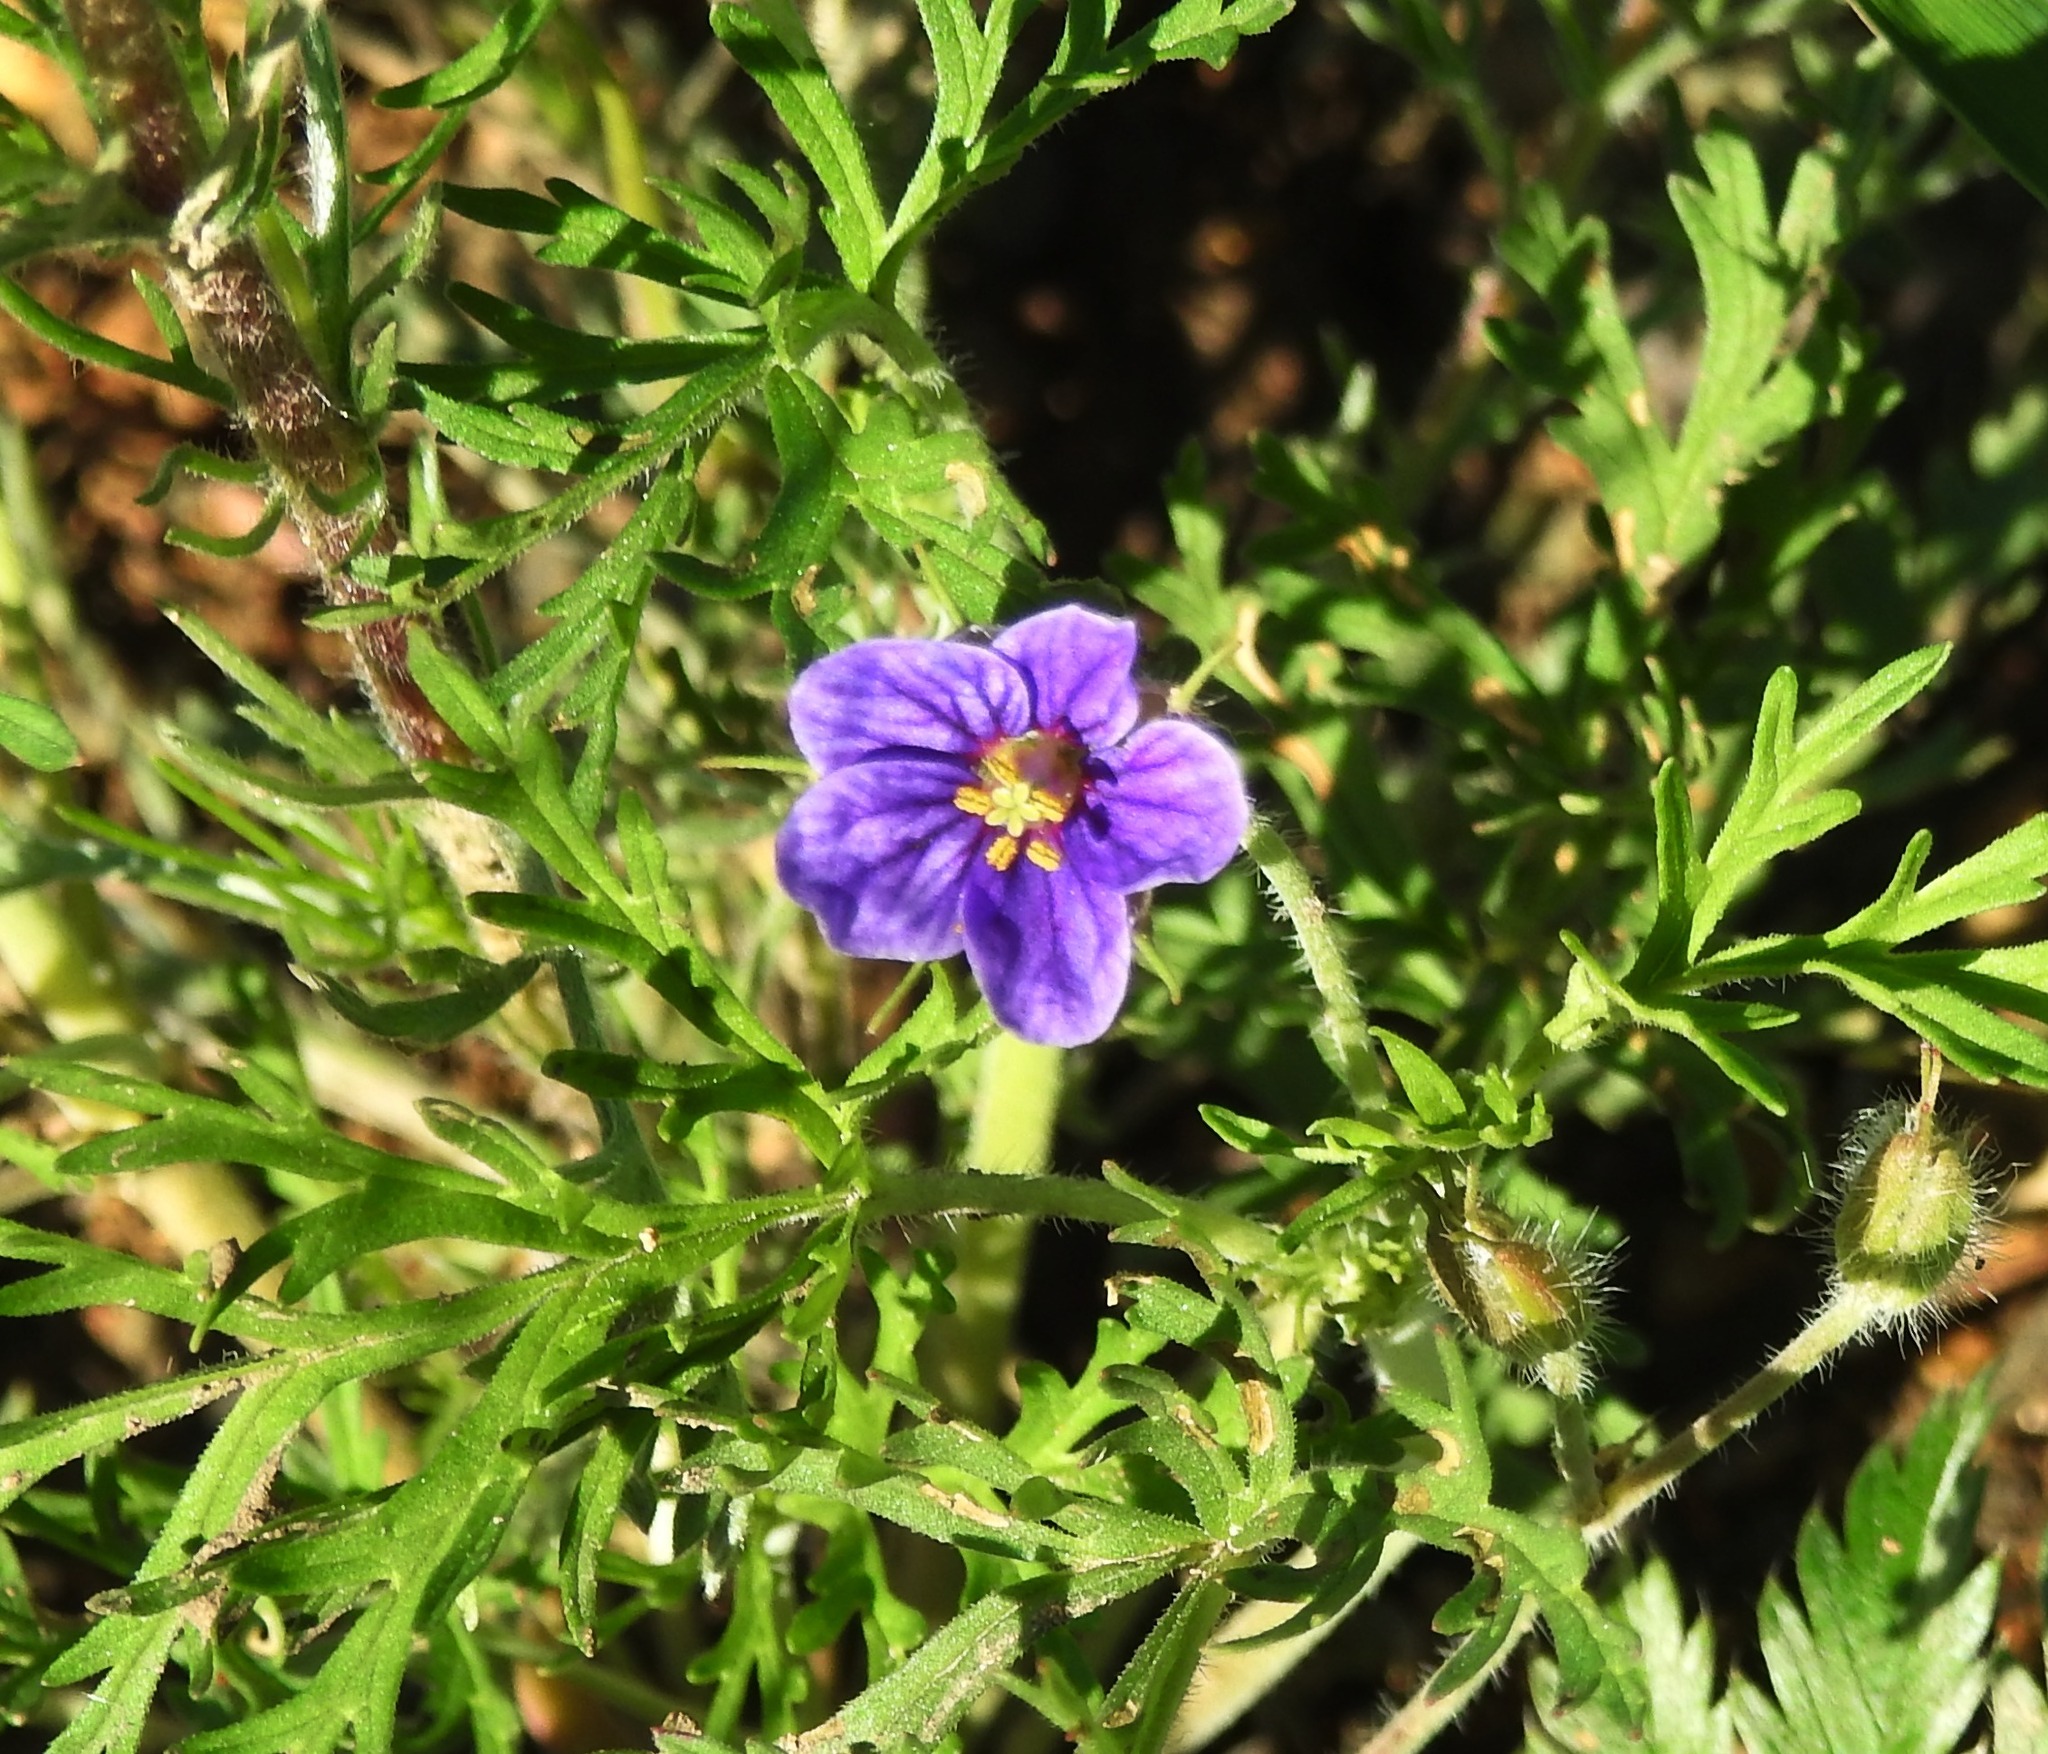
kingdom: Plantae
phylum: Tracheophyta
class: Magnoliopsida
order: Geraniales
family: Geraniaceae
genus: Erodium
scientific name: Erodium stephanianum
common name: Stephen's stork's bill
